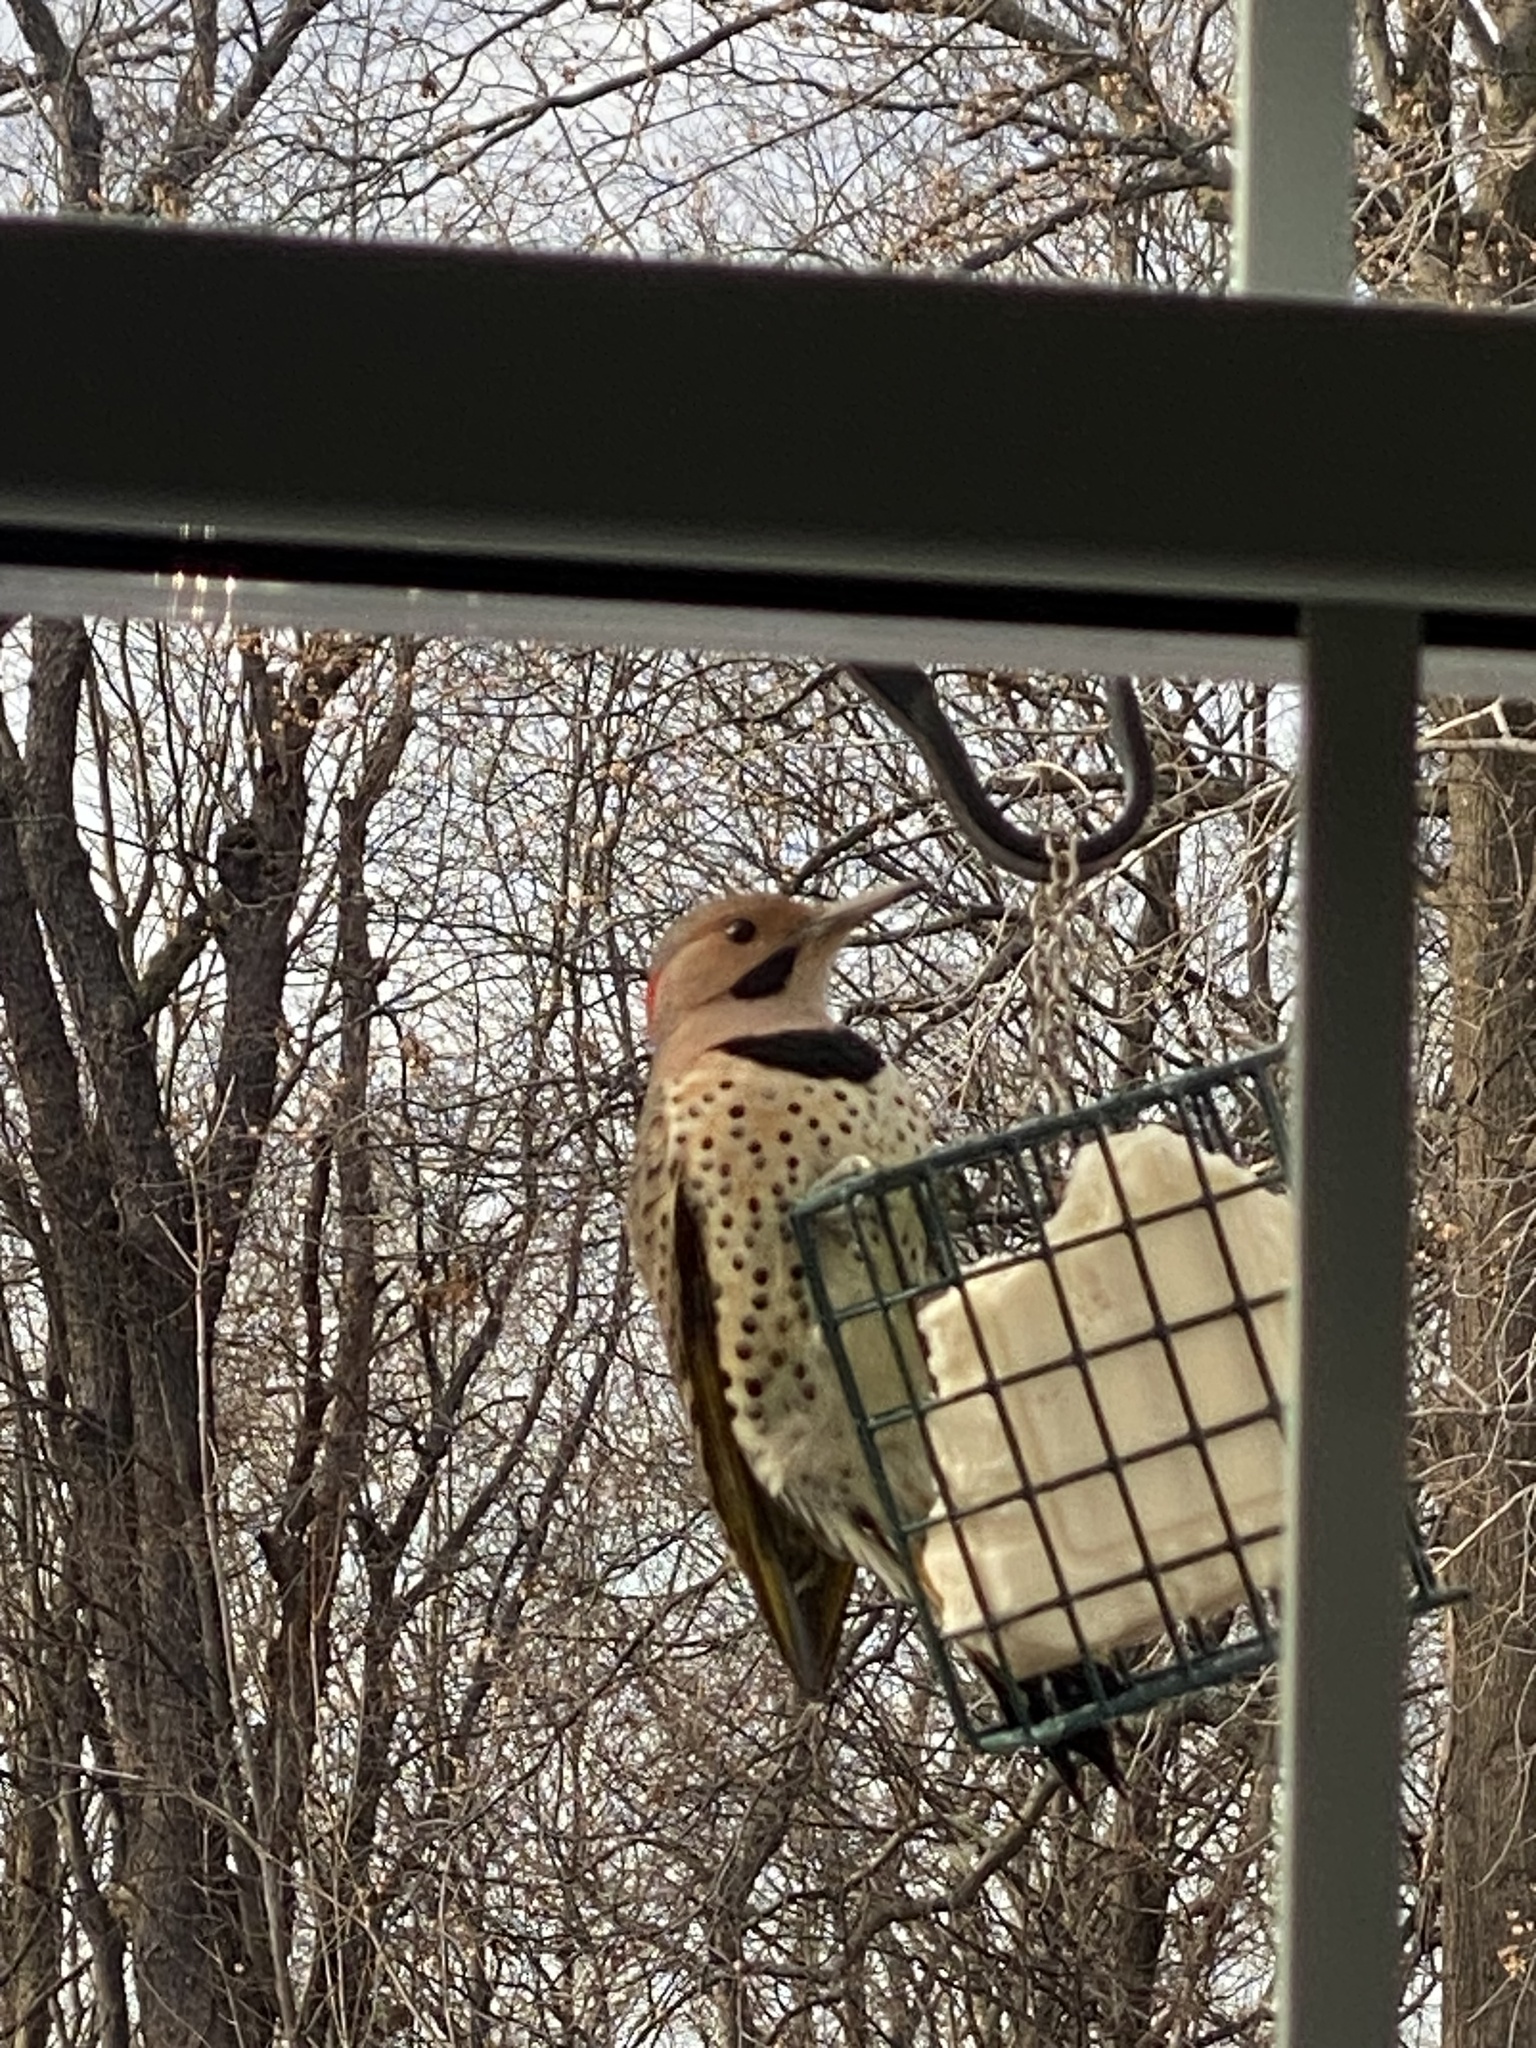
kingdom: Animalia
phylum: Chordata
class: Aves
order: Piciformes
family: Picidae
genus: Colaptes
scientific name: Colaptes auratus
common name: Northern flicker
